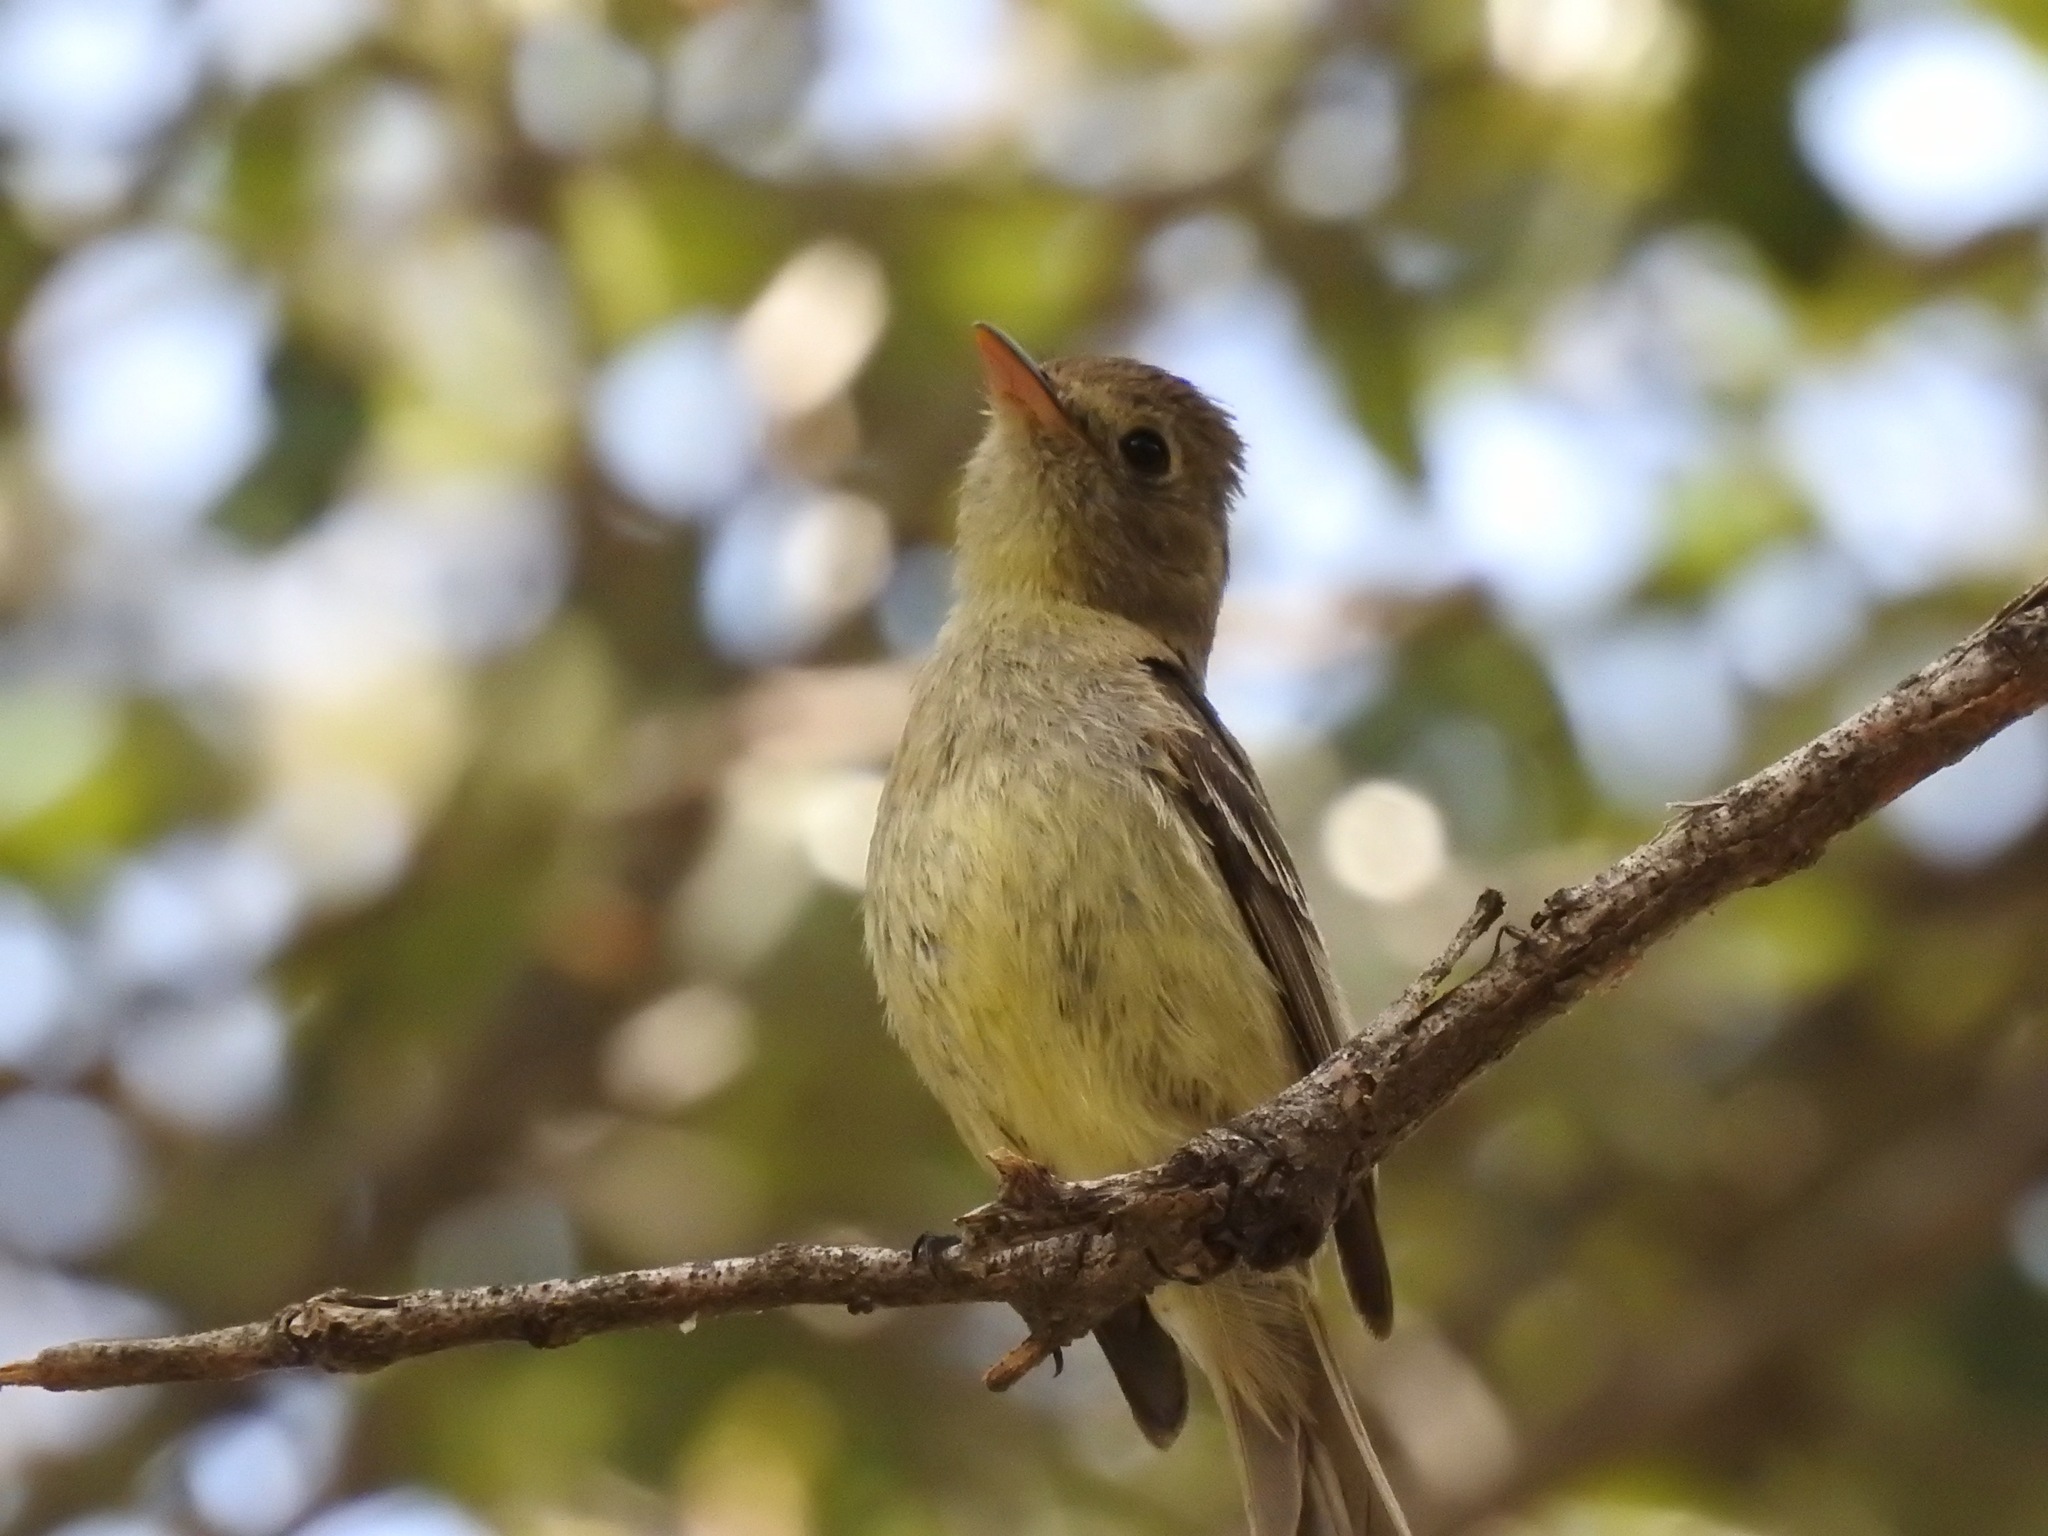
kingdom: Animalia
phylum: Chordata
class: Aves
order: Passeriformes
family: Tyrannidae
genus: Empidonax
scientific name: Empidonax difficilis
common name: Pacific-slope flycatcher
